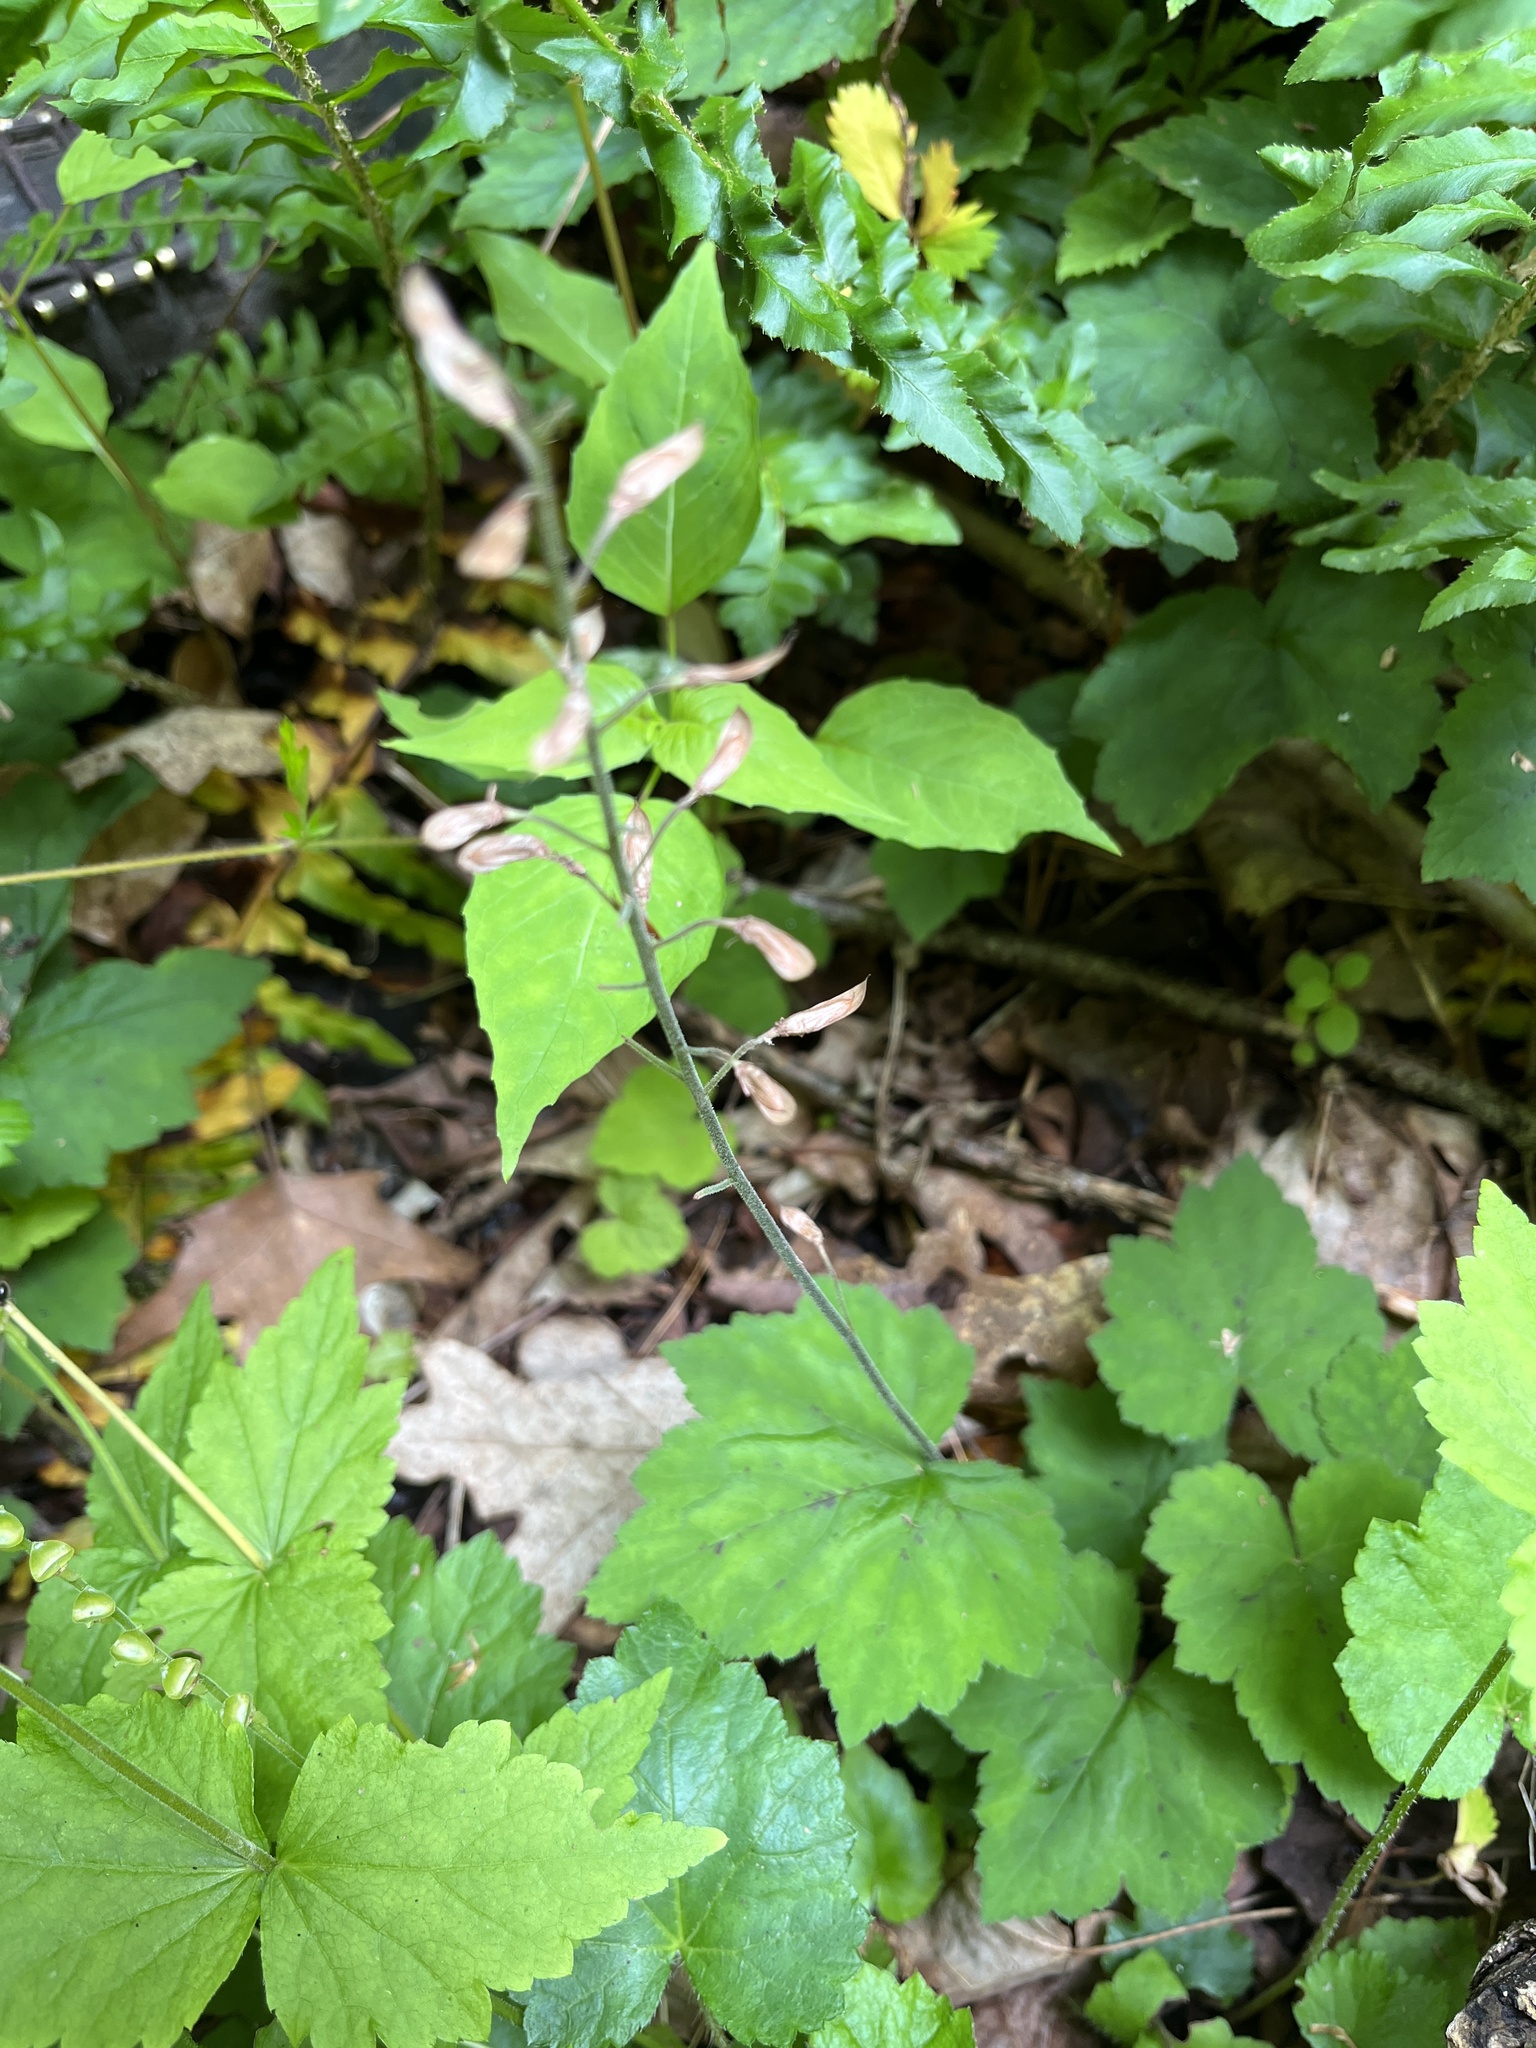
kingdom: Plantae
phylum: Tracheophyta
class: Magnoliopsida
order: Saxifragales
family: Saxifragaceae
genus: Tiarella
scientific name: Tiarella stolonifera
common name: Stoloniferous foamflower
